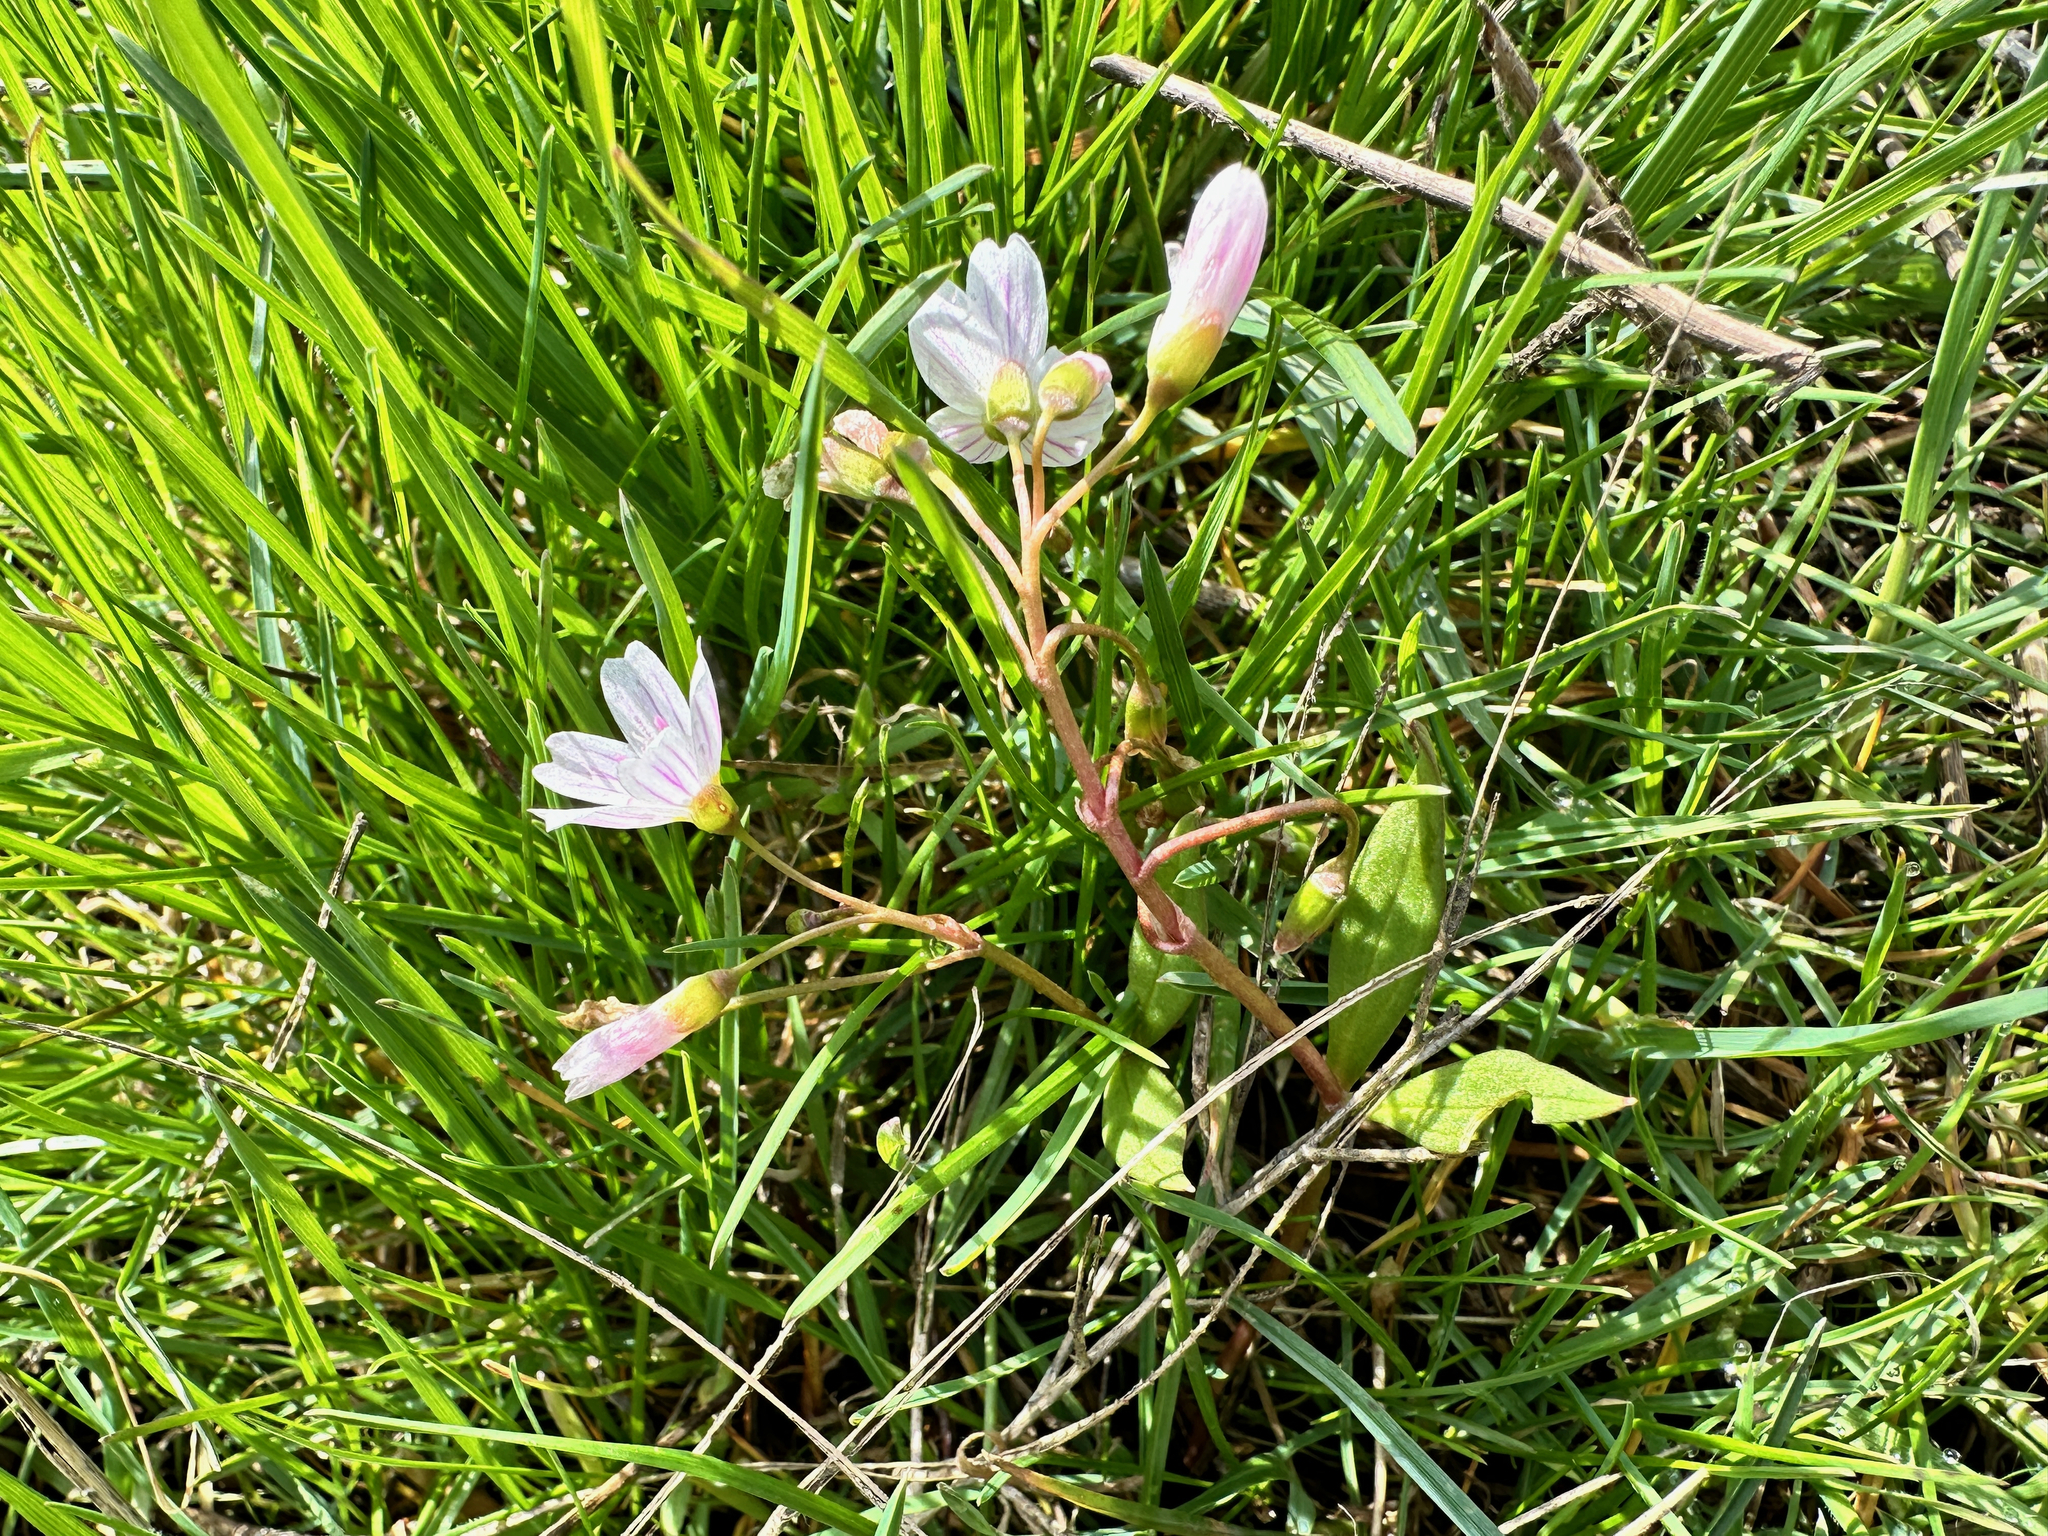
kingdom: Plantae
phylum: Tracheophyta
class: Magnoliopsida
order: Caryophyllales
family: Montiaceae
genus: Claytonia
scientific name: Claytonia lanceolata
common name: Western spring-beauty
